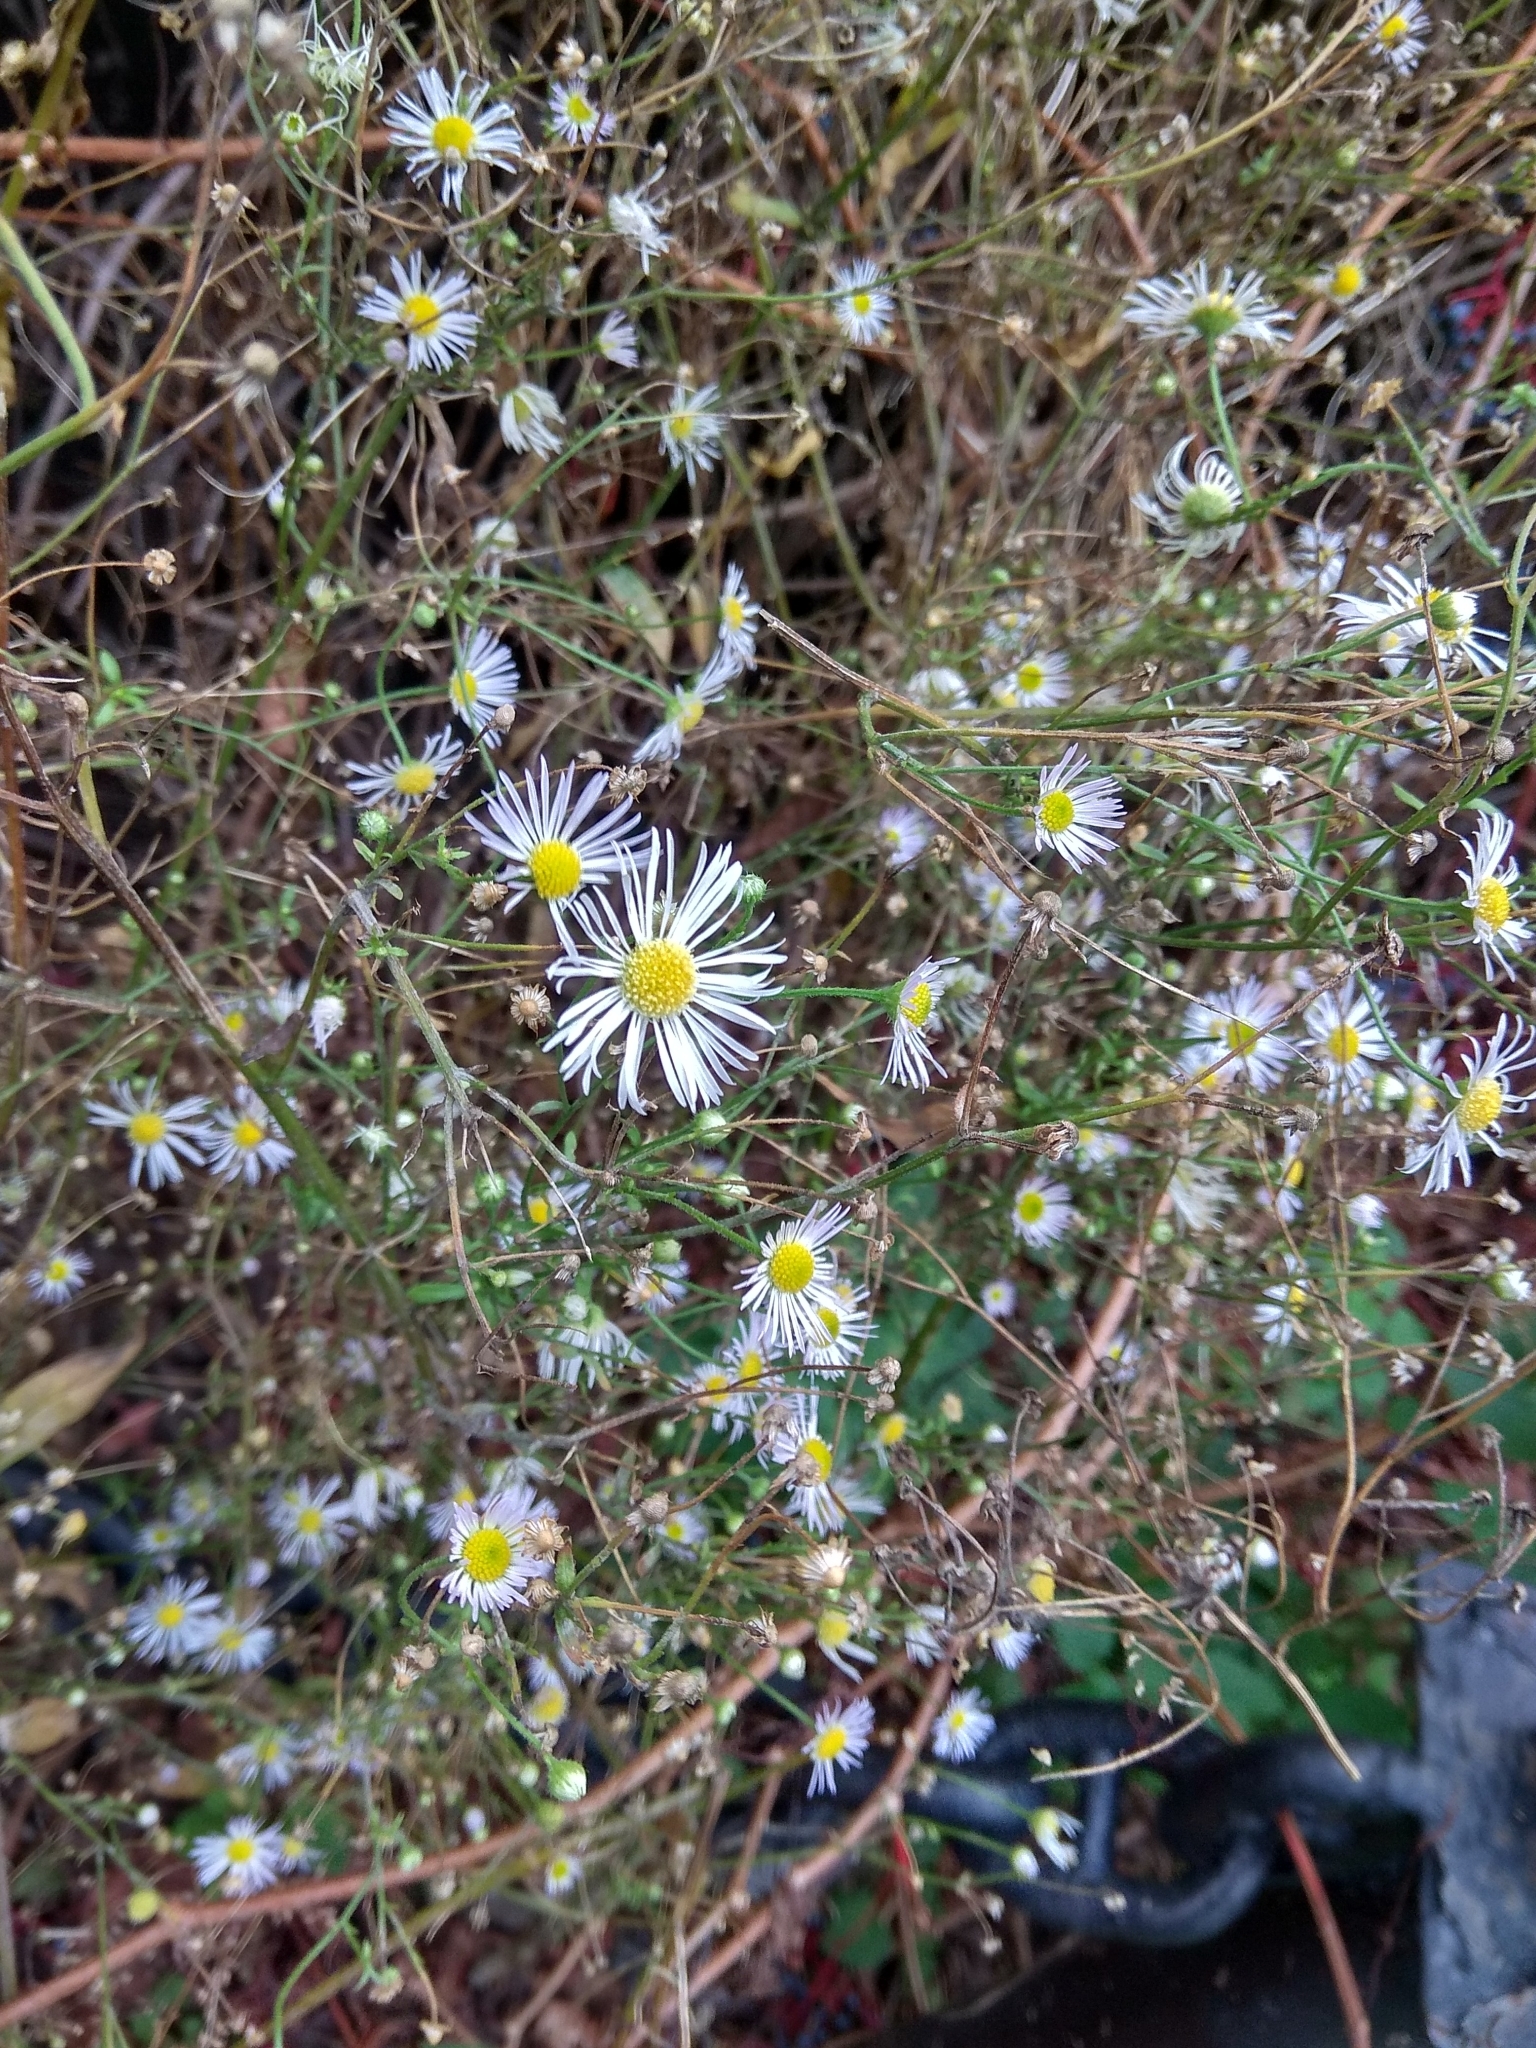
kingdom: Plantae
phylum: Tracheophyta
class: Magnoliopsida
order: Asterales
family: Asteraceae
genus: Erigeron
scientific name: Erigeron annuus
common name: Tall fleabane
